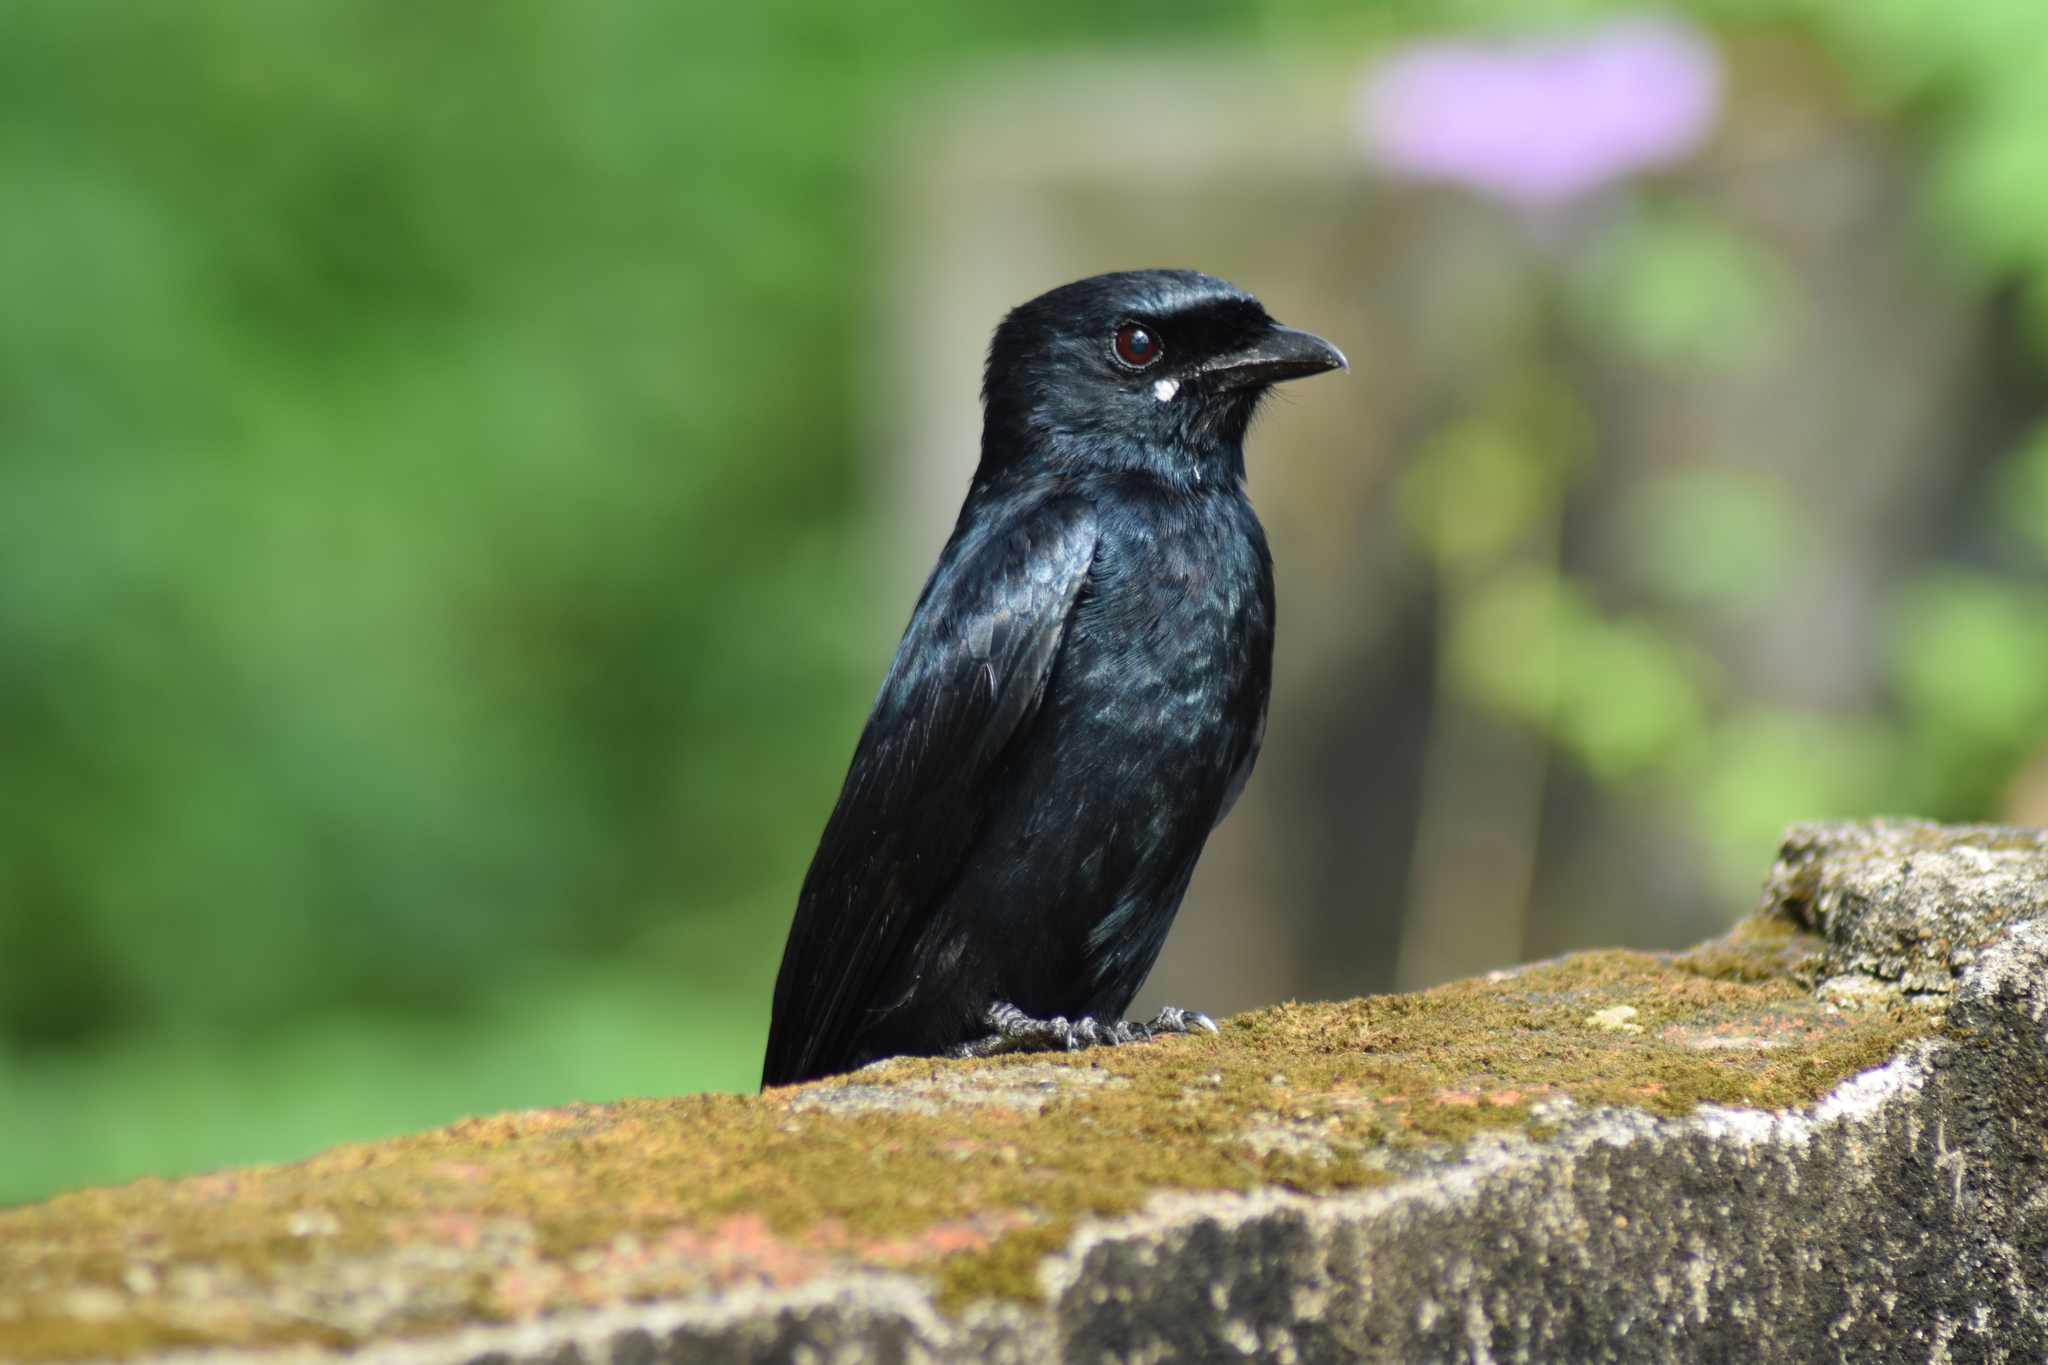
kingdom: Animalia
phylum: Chordata
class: Aves
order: Passeriformes
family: Dicruridae
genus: Dicrurus
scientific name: Dicrurus macrocercus
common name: Black drongo
